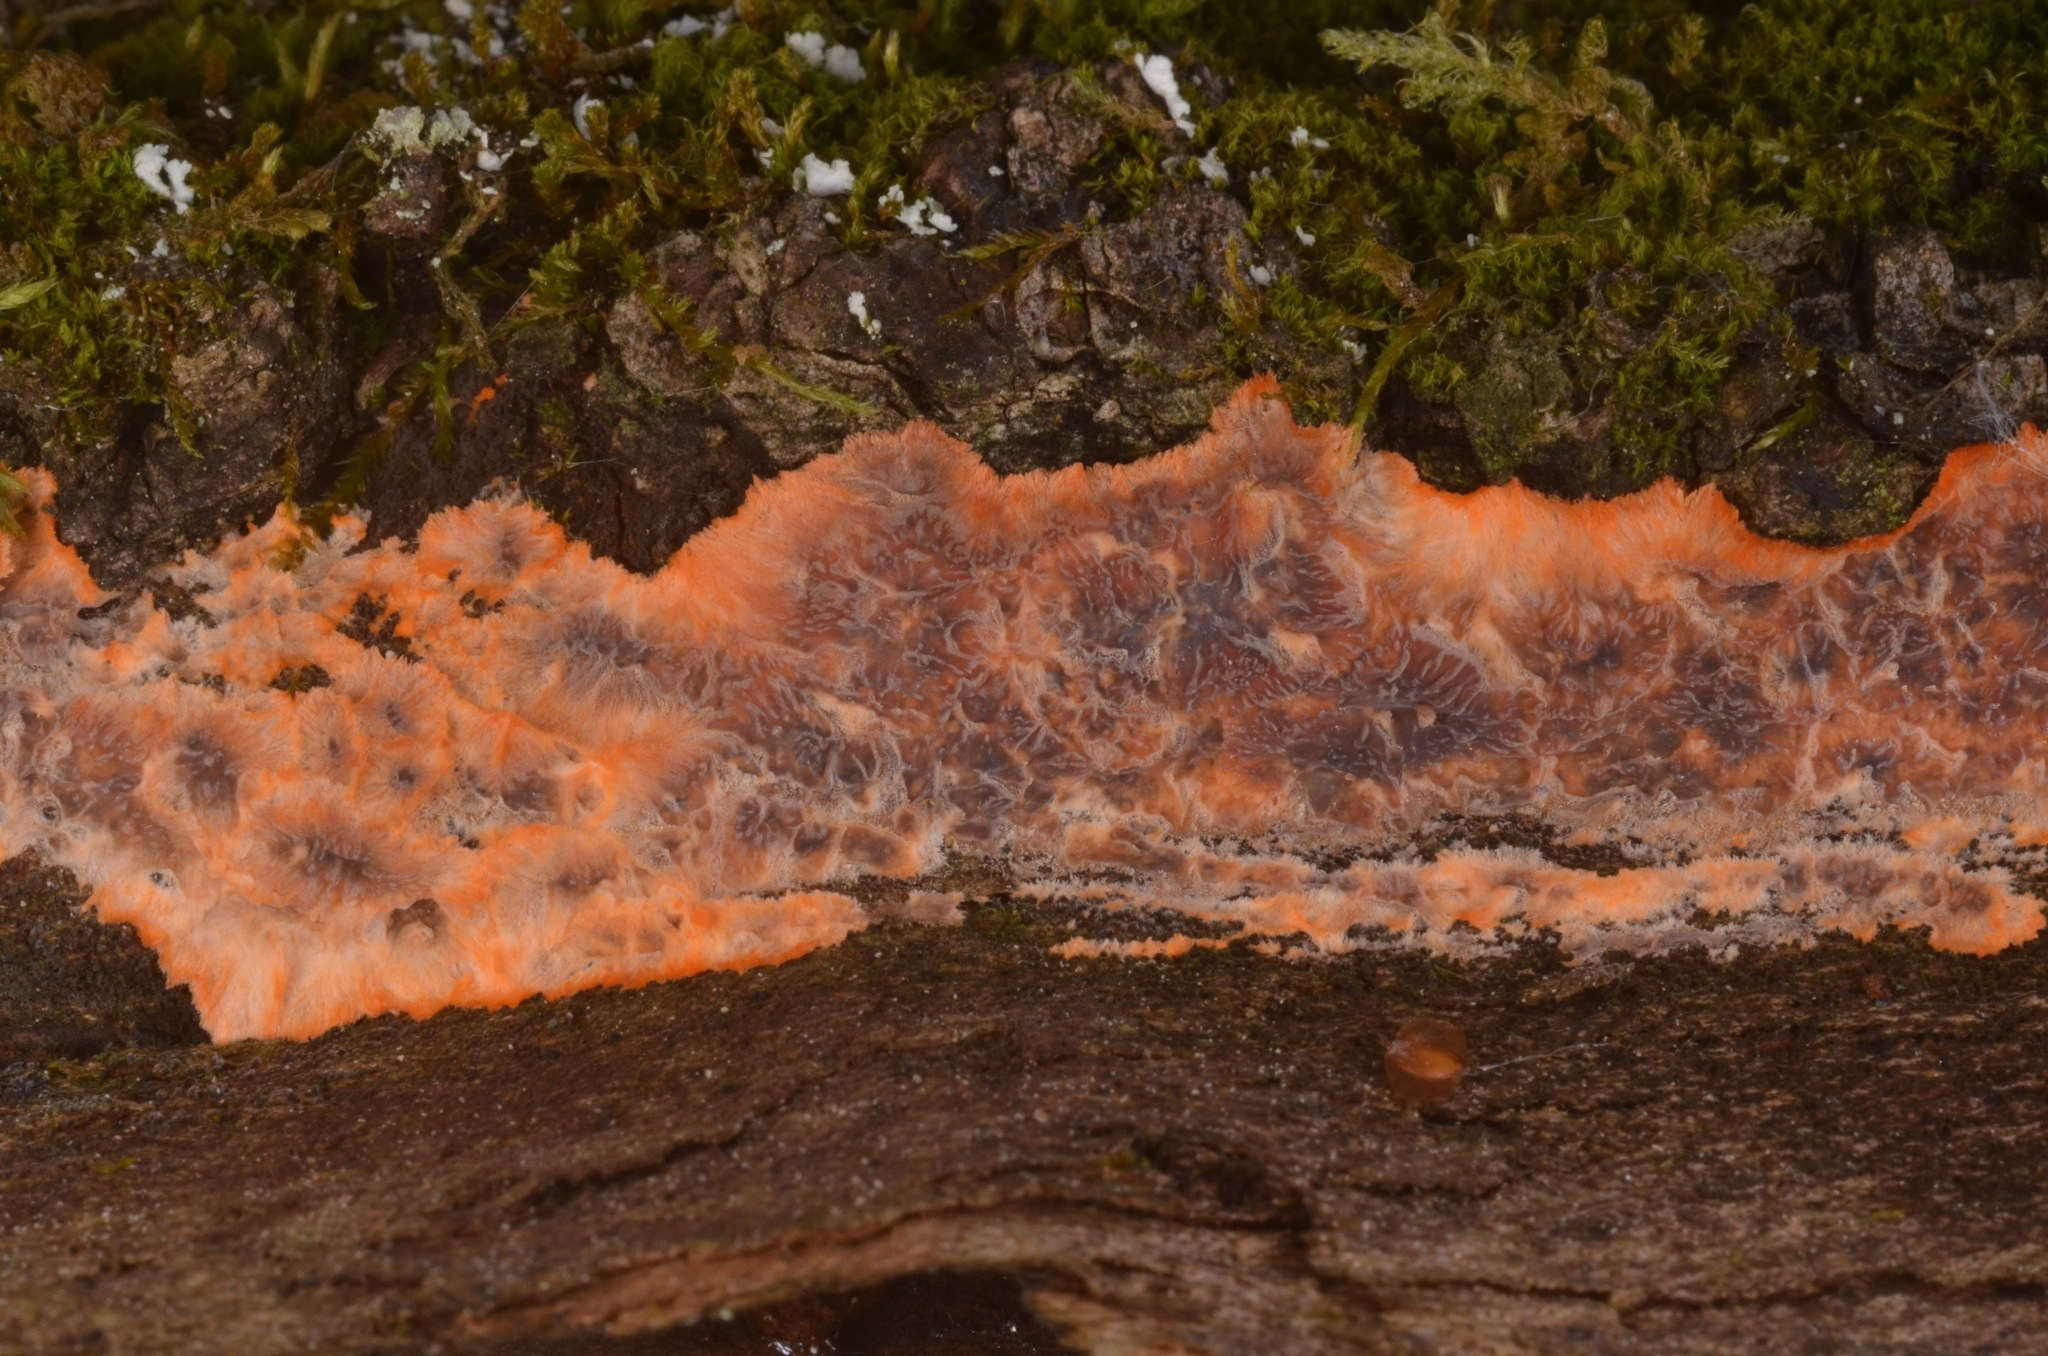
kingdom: Fungi
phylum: Basidiomycota
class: Agaricomycetes
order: Polyporales
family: Meruliaceae
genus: Phlebia
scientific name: Phlebia radiata
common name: Wrinkled crust
